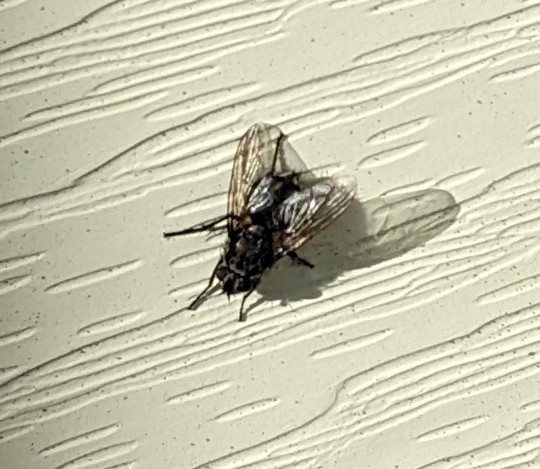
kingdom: Animalia
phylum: Arthropoda
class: Insecta
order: Diptera
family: Polleniidae
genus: Pollenia
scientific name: Pollenia
